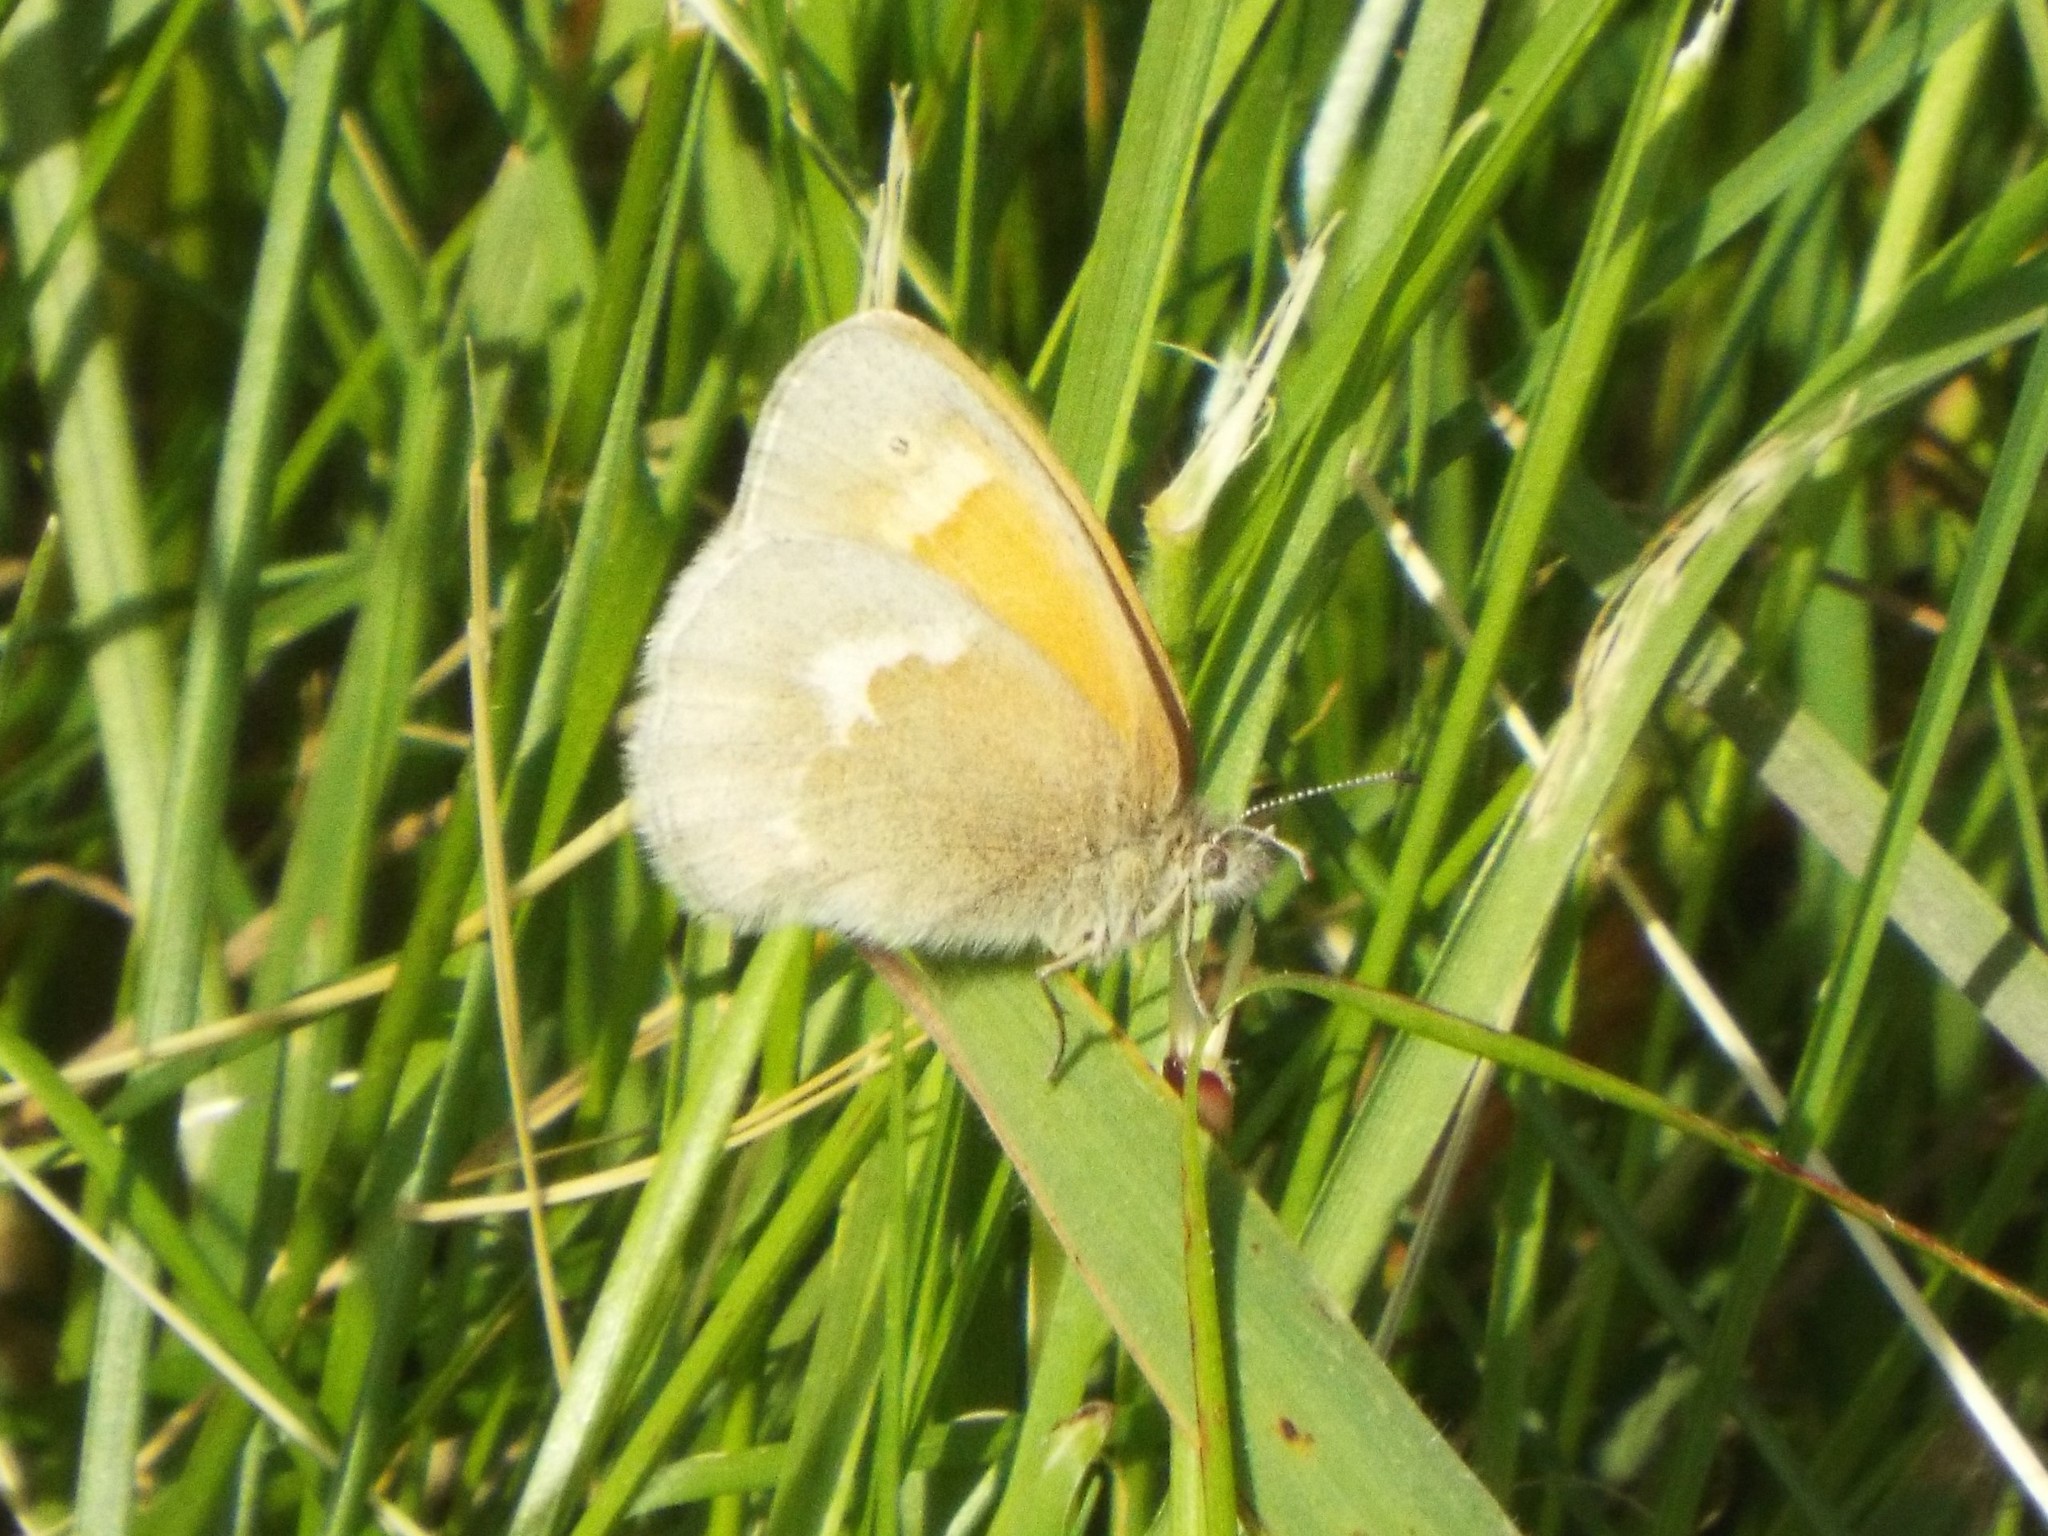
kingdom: Animalia
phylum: Arthropoda
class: Insecta
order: Lepidoptera
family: Nymphalidae
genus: Coenonympha
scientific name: Coenonympha california
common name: Common ringlet
